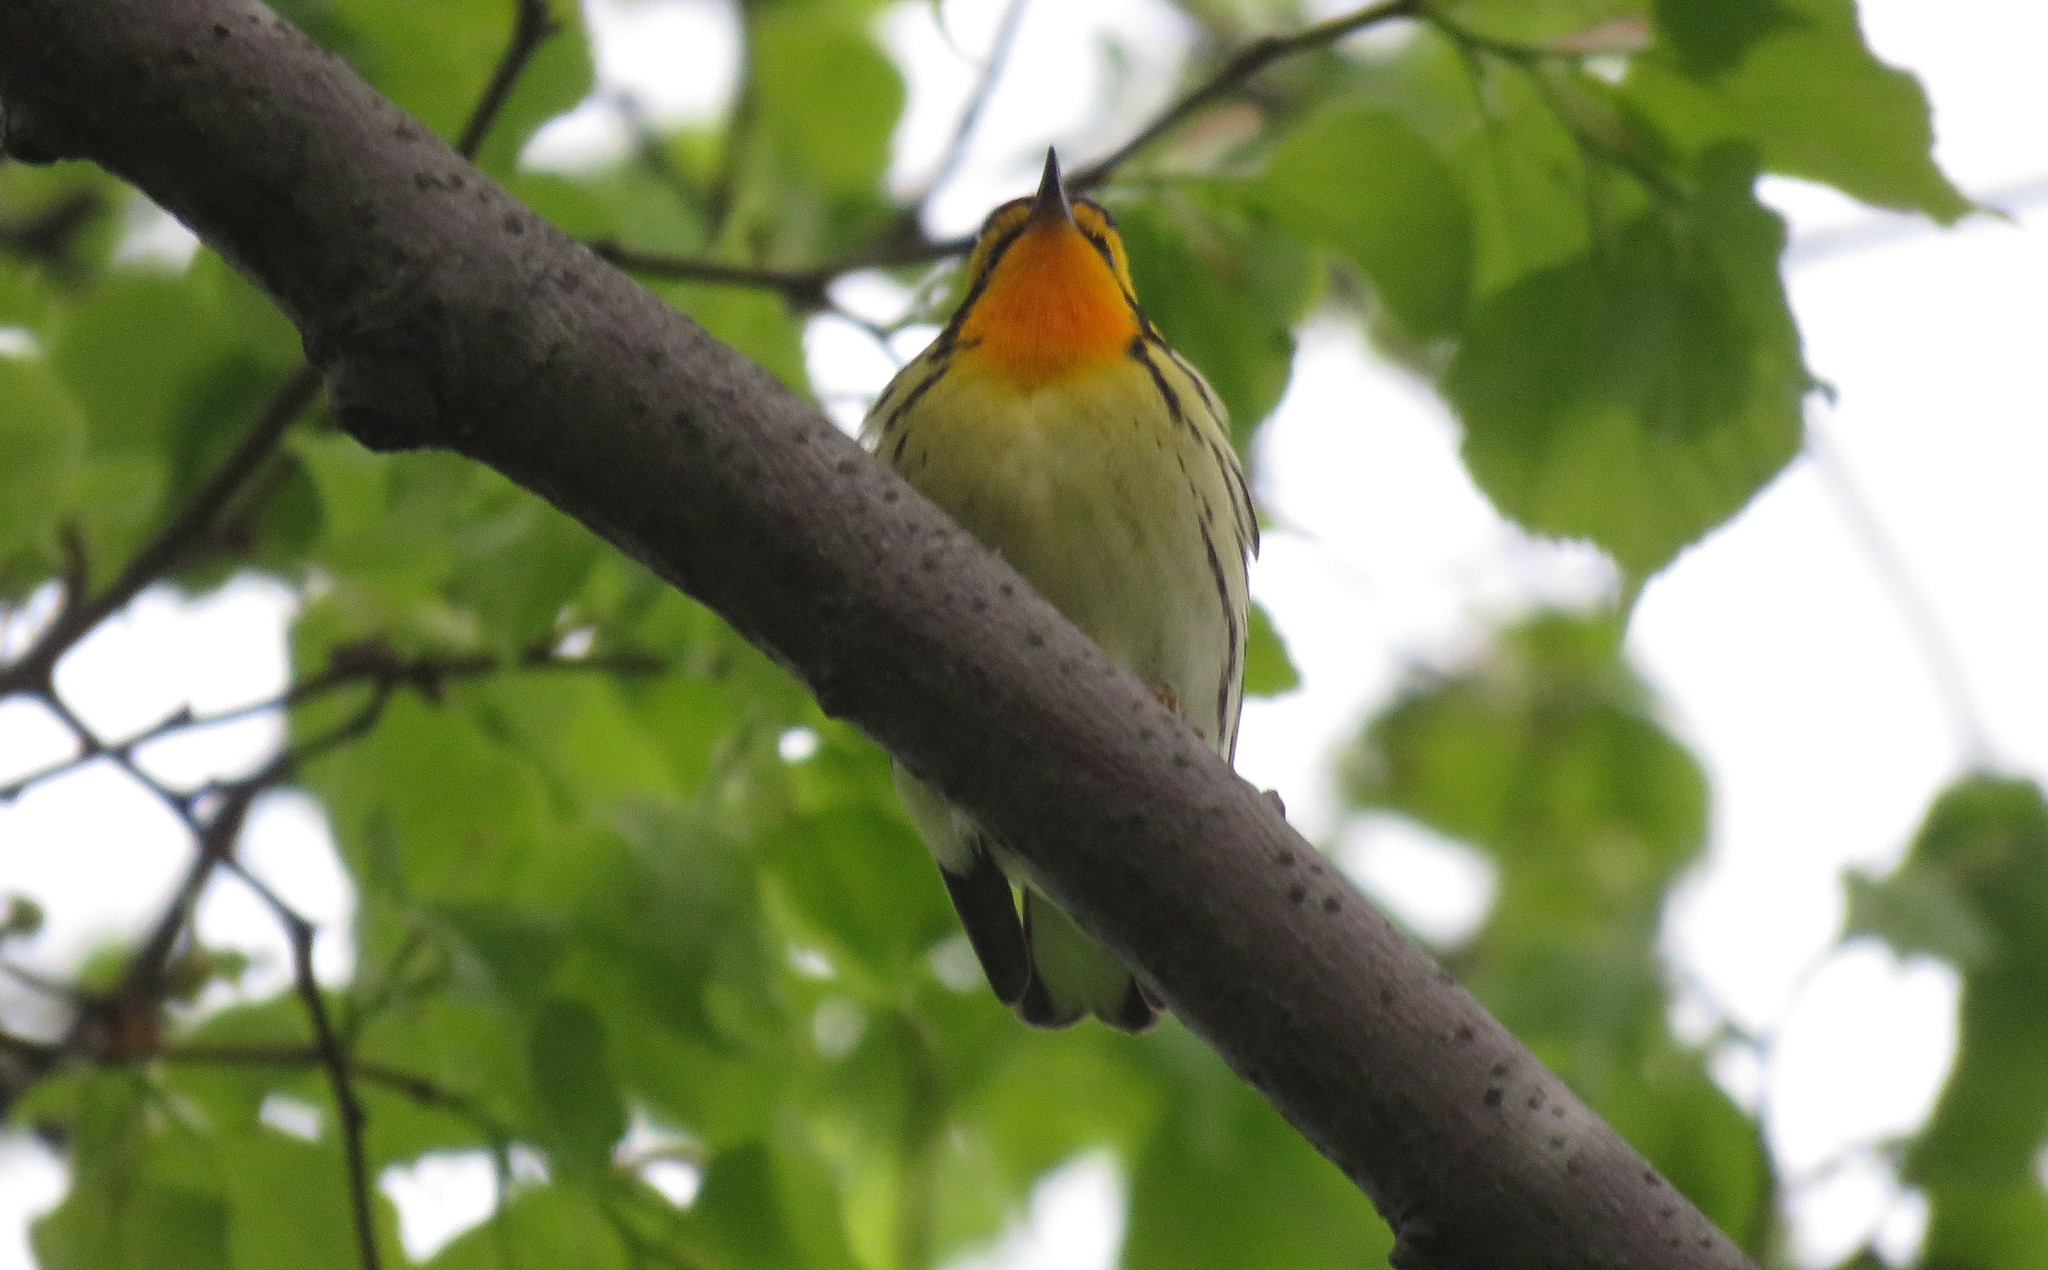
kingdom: Animalia
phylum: Chordata
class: Aves
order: Passeriformes
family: Parulidae
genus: Setophaga
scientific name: Setophaga fusca
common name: Blackburnian warbler
